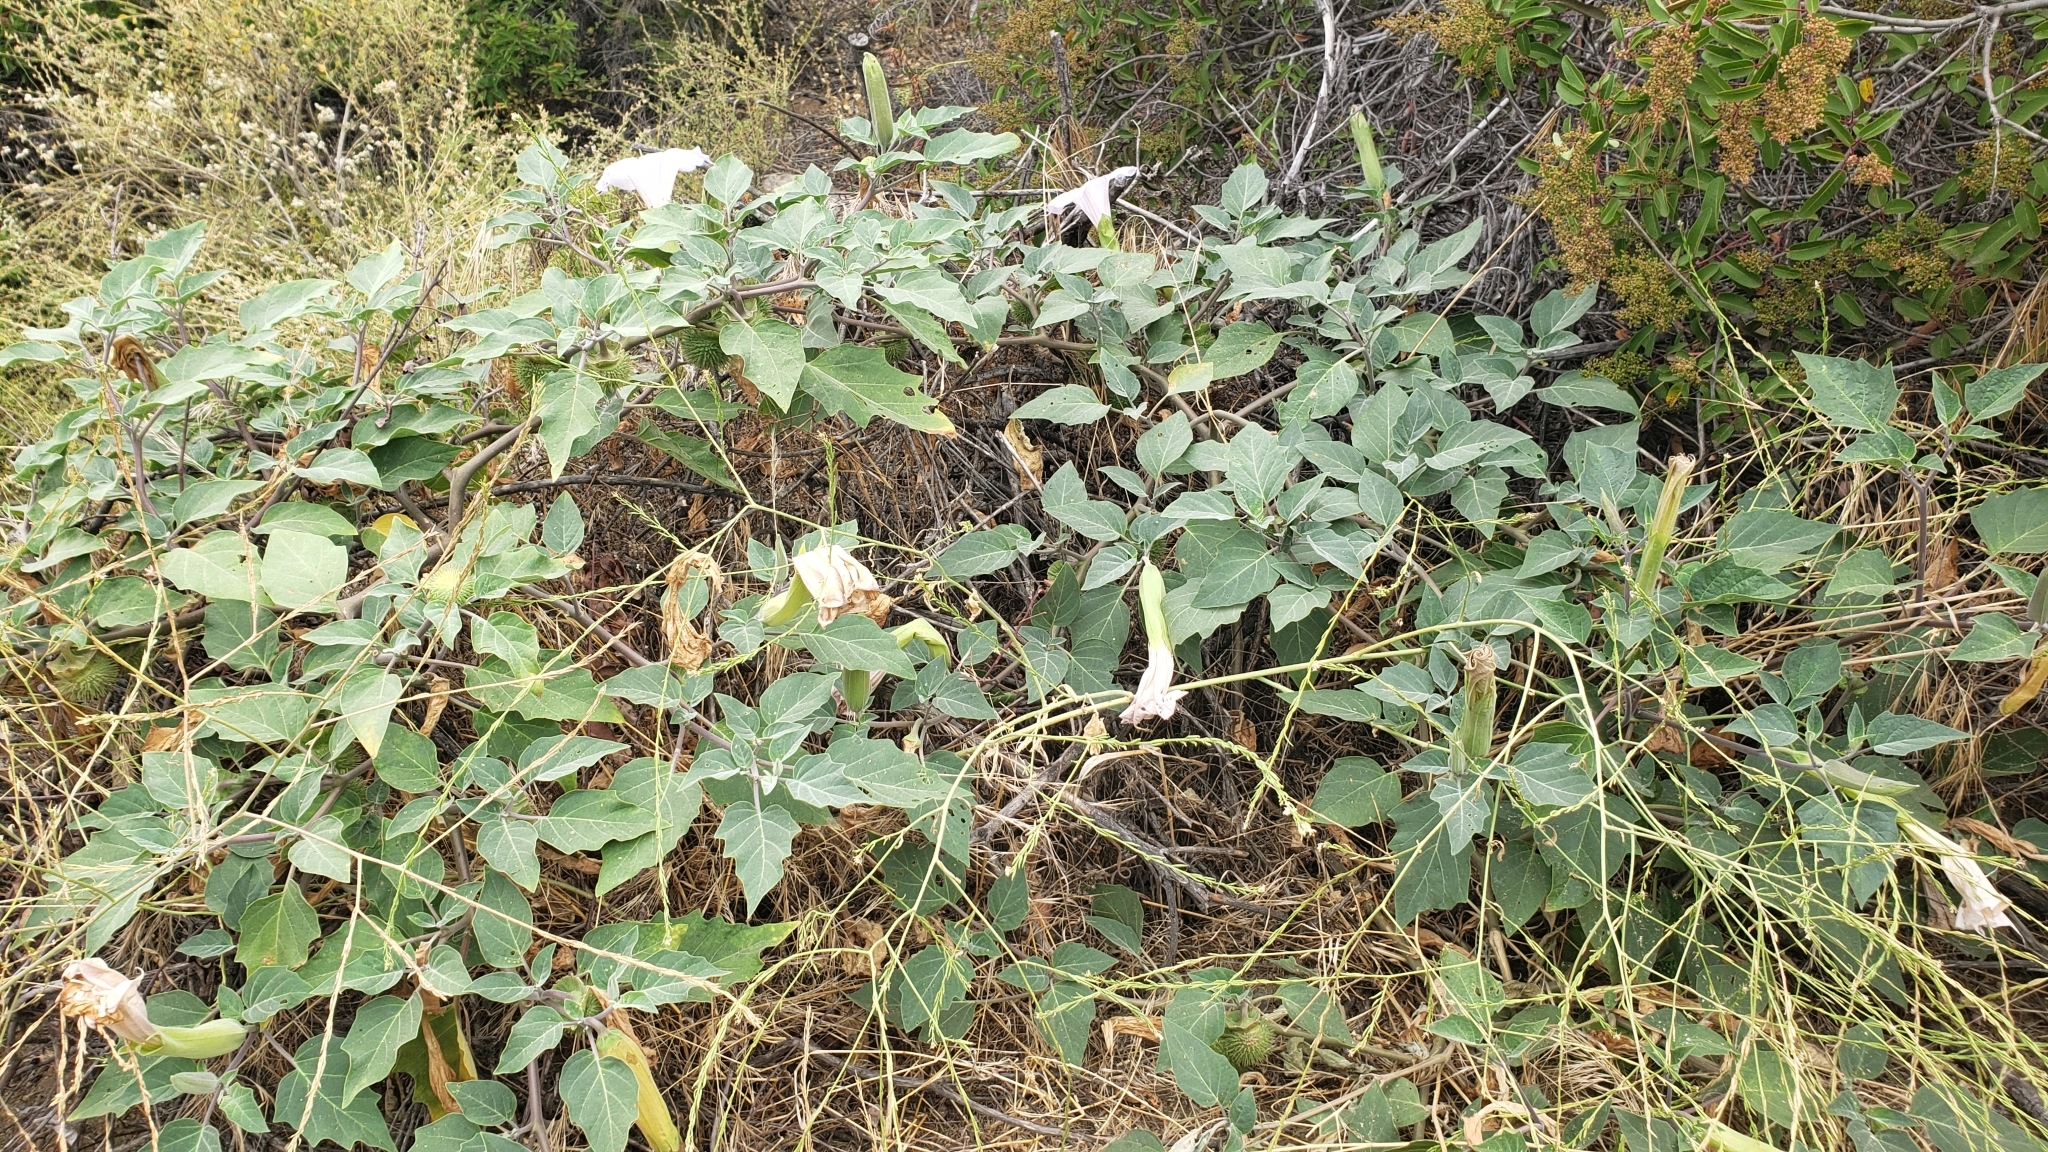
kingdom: Plantae
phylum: Tracheophyta
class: Magnoliopsida
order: Solanales
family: Solanaceae
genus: Datura
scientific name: Datura wrightii
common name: Sacred thorn-apple
